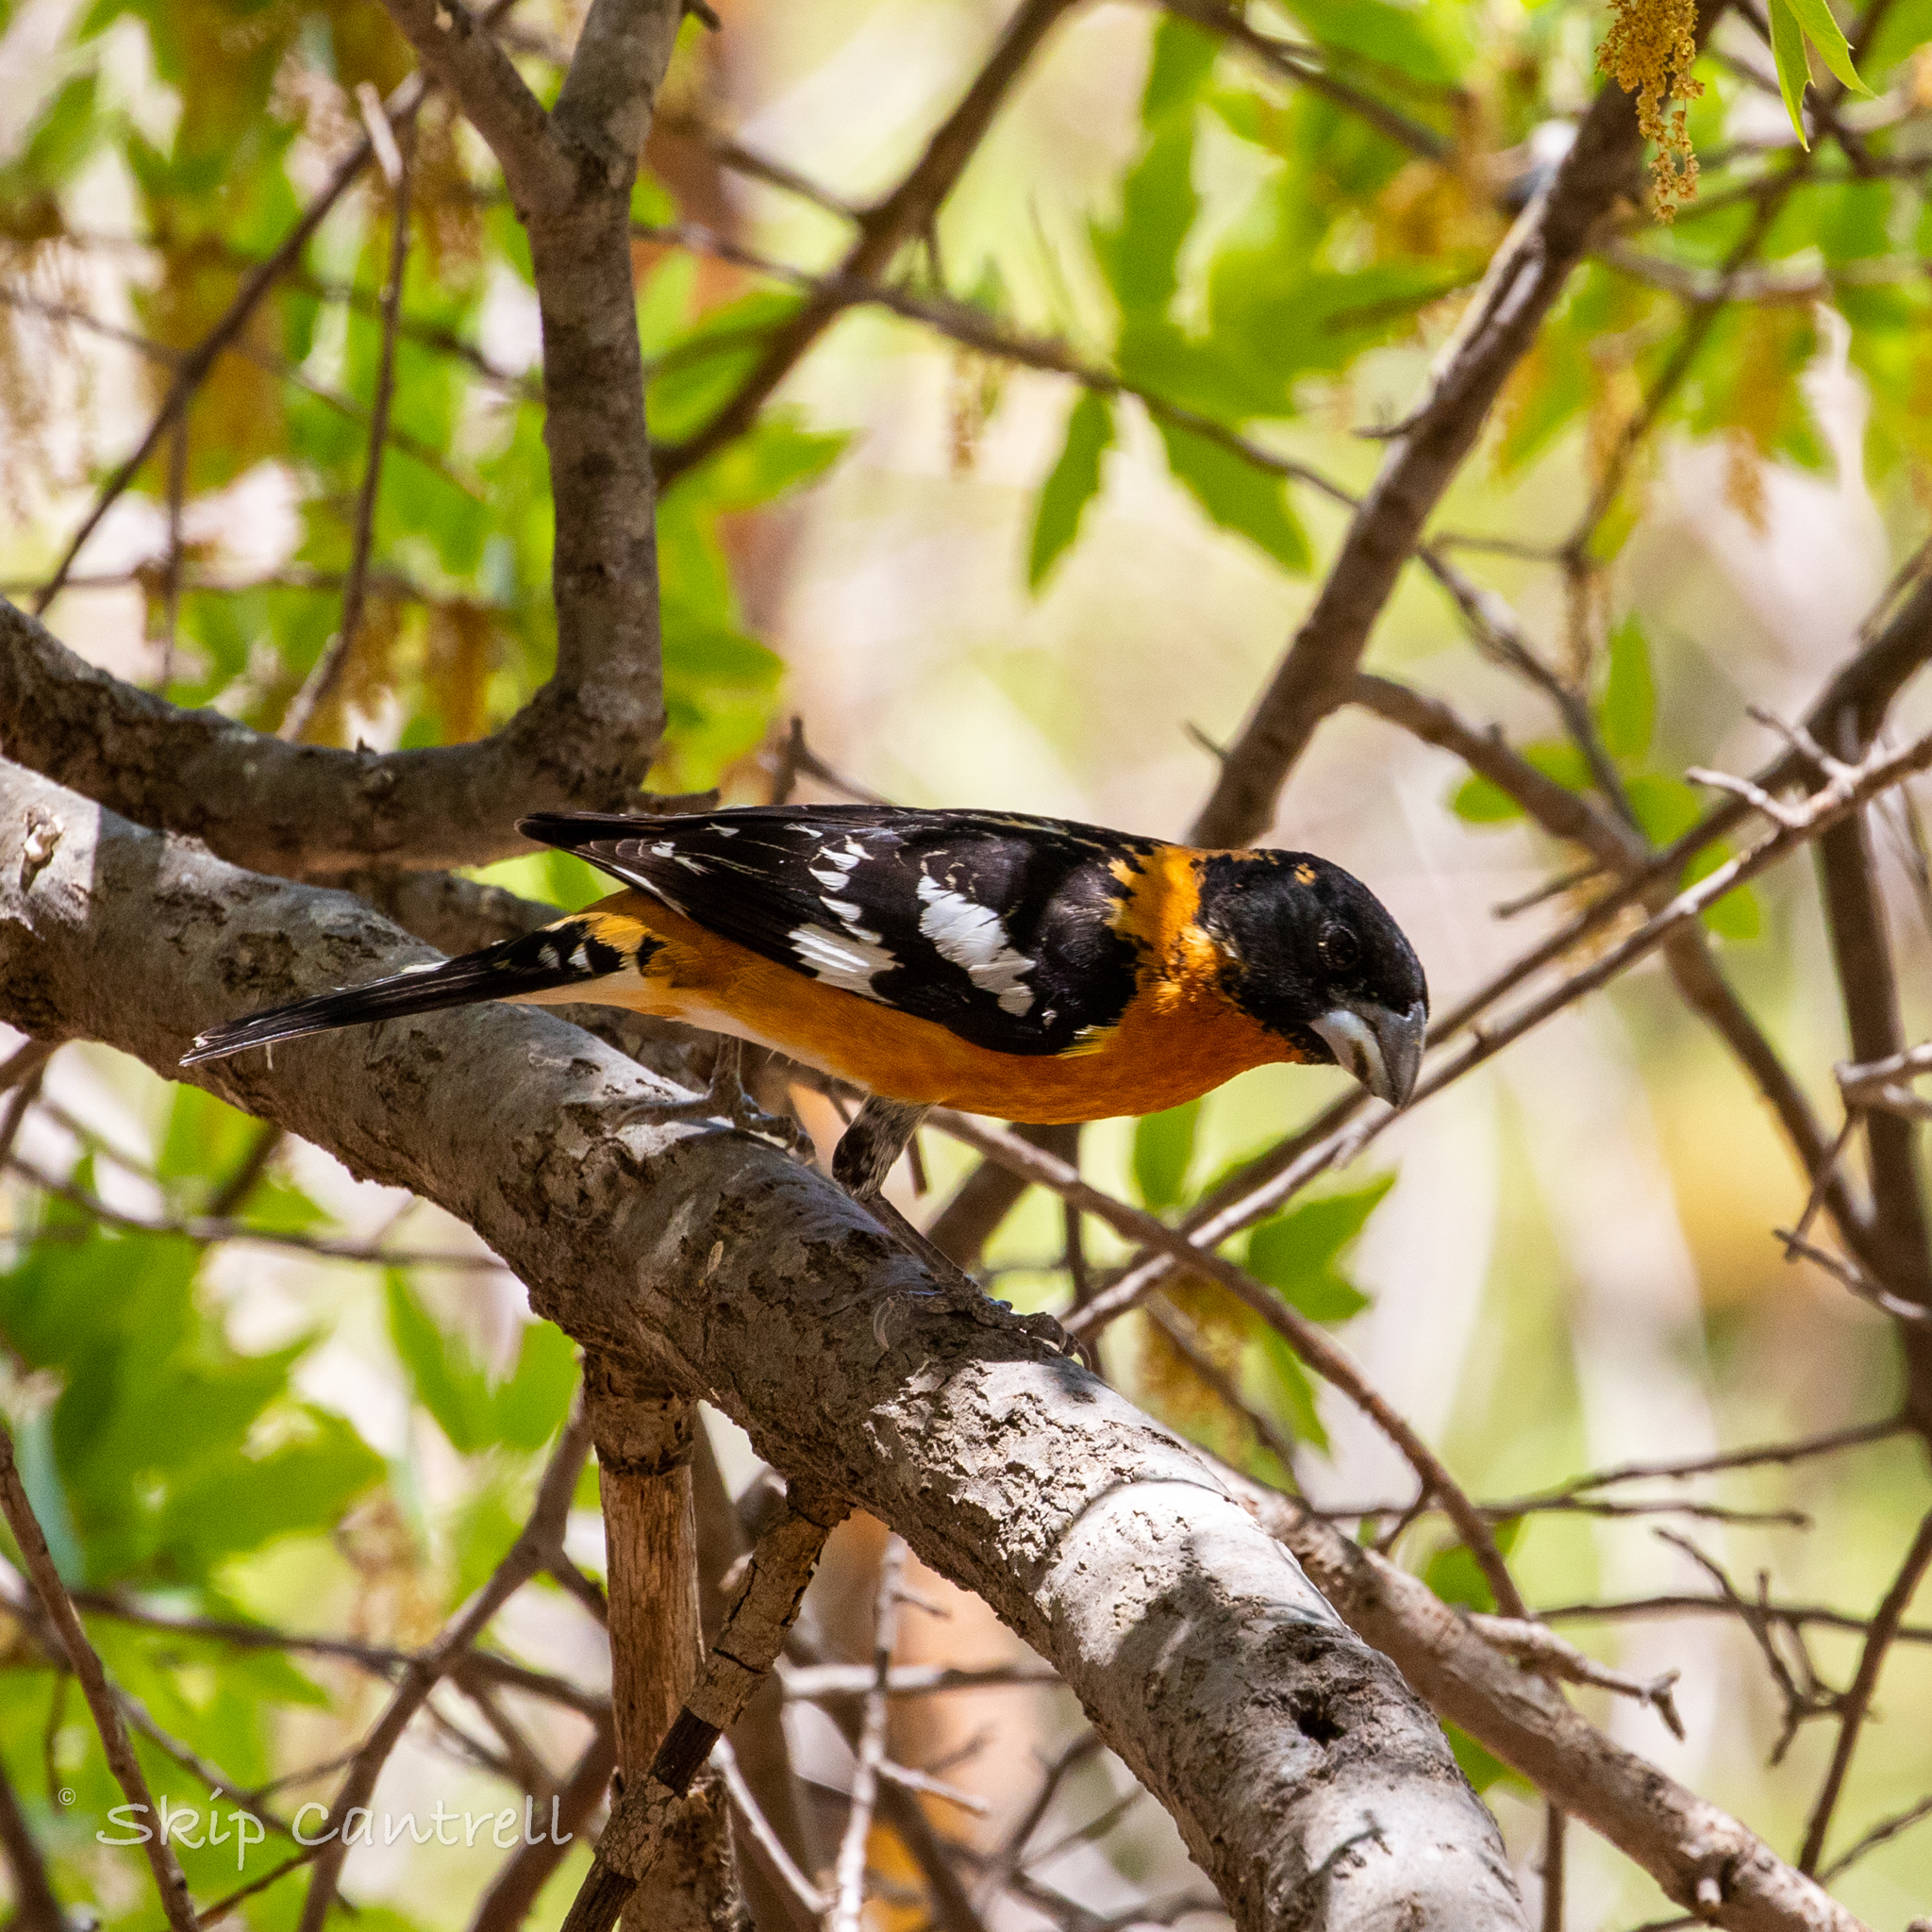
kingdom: Animalia
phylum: Chordata
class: Aves
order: Passeriformes
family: Cardinalidae
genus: Pheucticus
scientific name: Pheucticus melanocephalus
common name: Black-headed grosbeak
